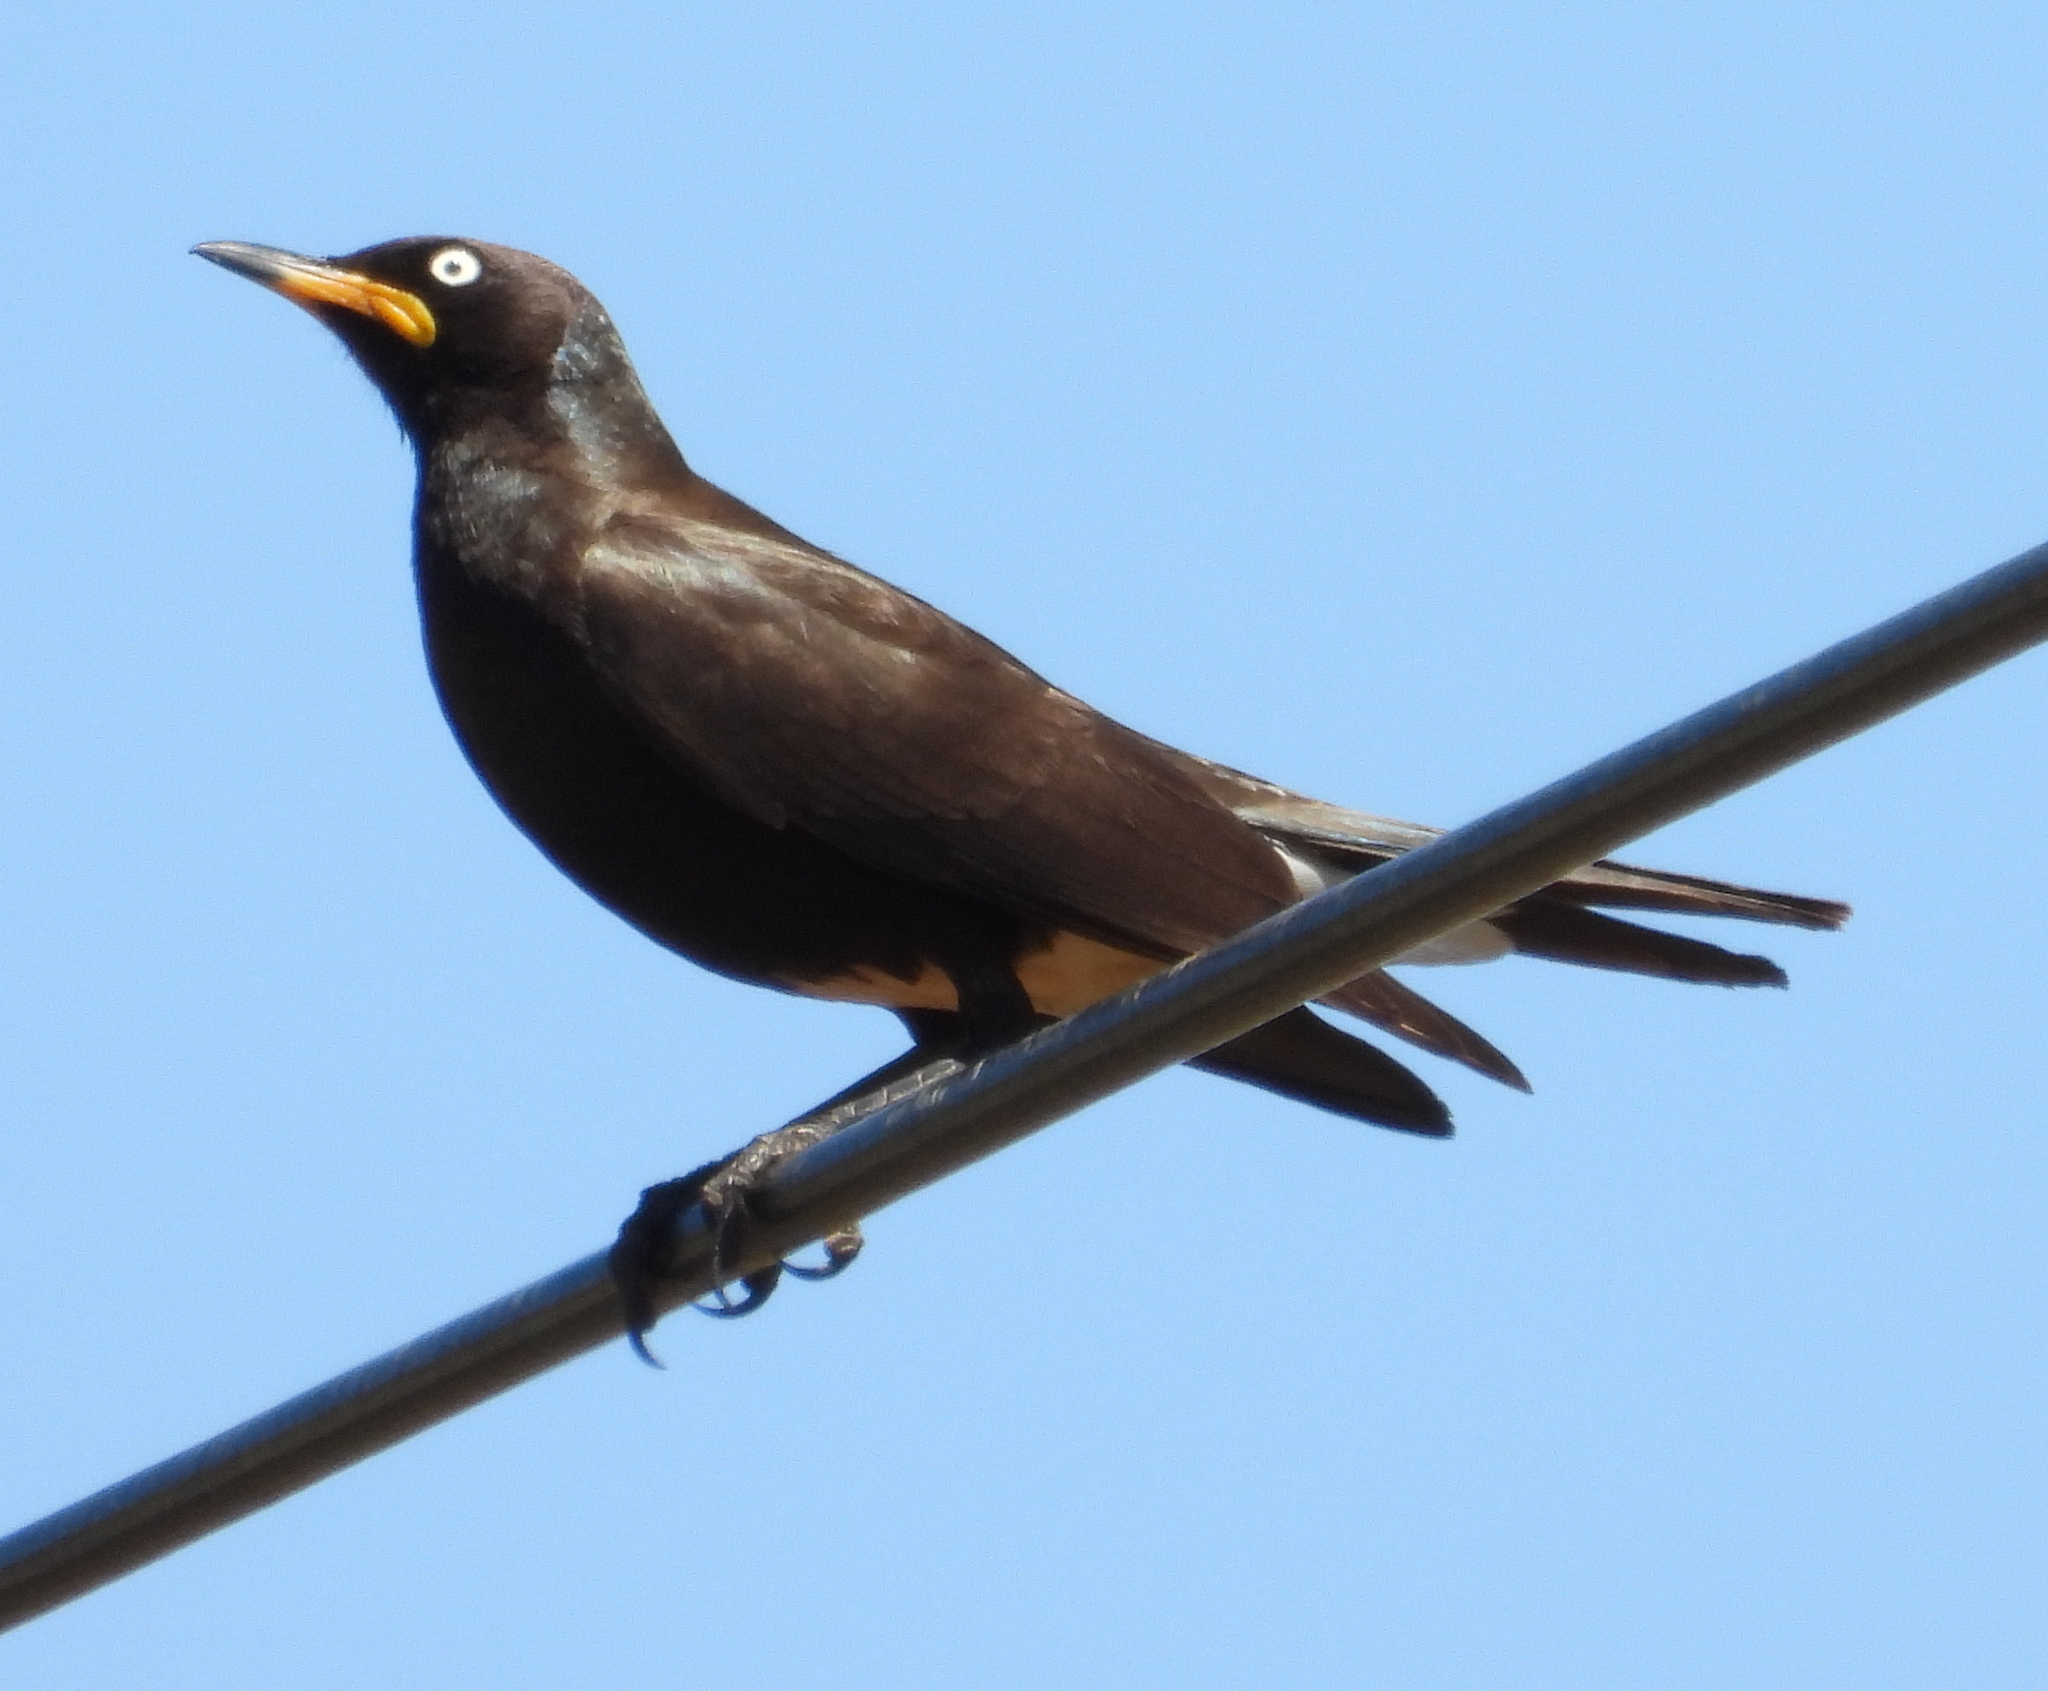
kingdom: Animalia
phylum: Chordata
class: Aves
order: Passeriformes
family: Sturnidae
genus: Lamprotornis
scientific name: Lamprotornis bicolor
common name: Pied starling
